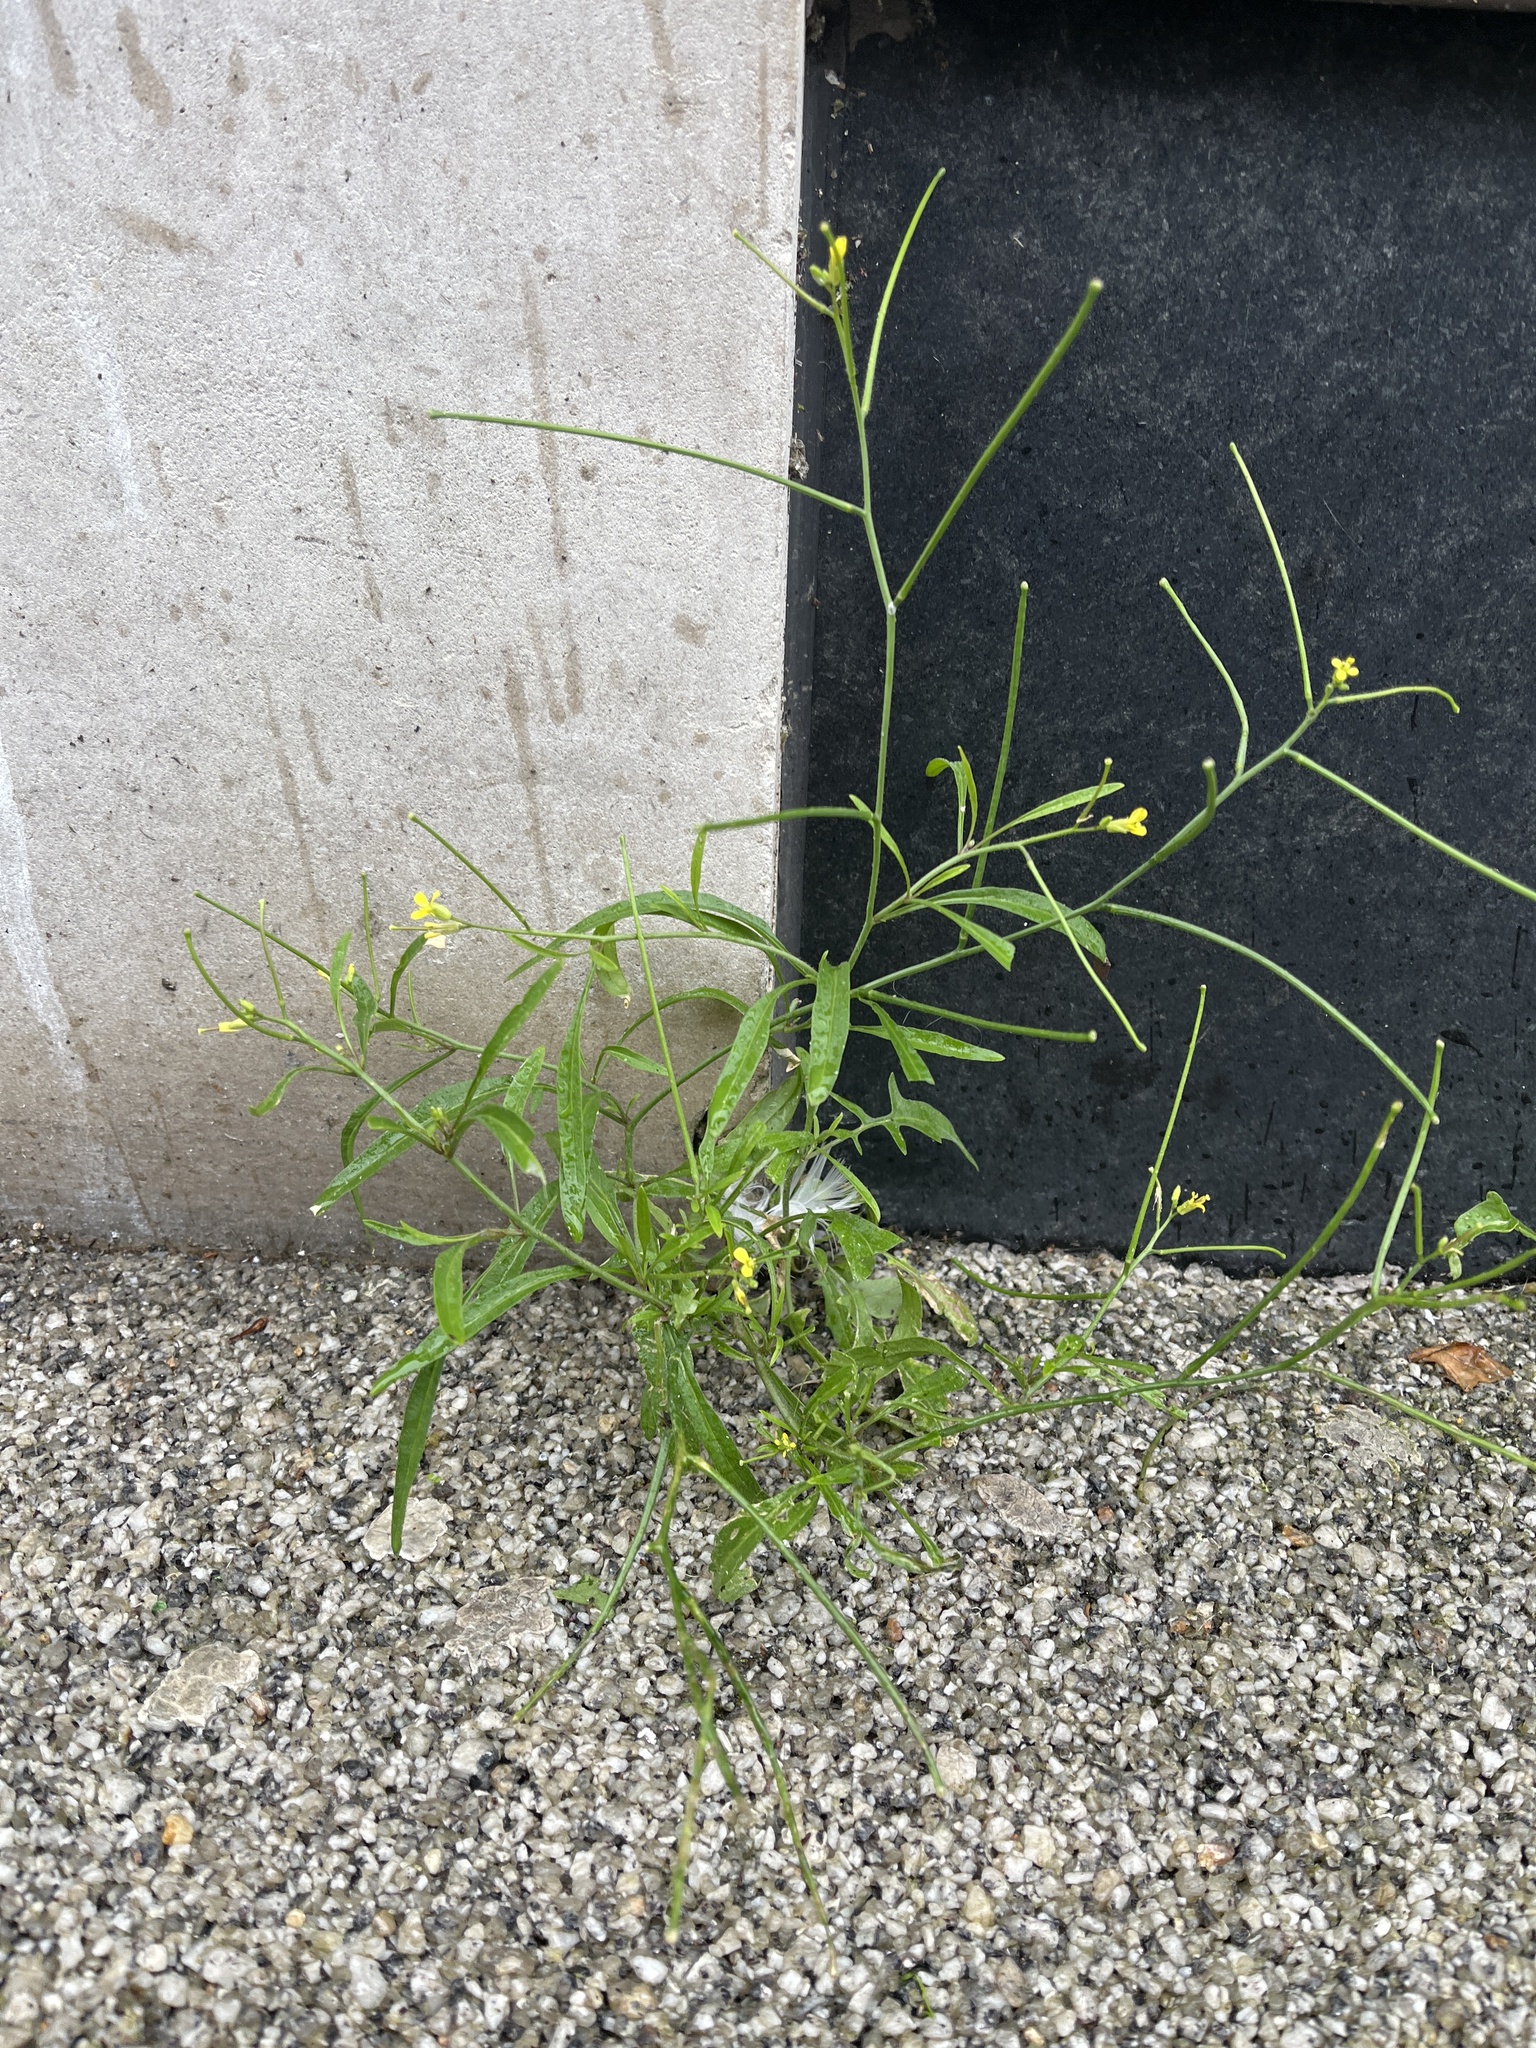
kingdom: Plantae
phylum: Tracheophyta
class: Magnoliopsida
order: Brassicales
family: Brassicaceae
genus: Sisymbrium
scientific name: Sisymbrium orientale
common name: Eastern rocket
